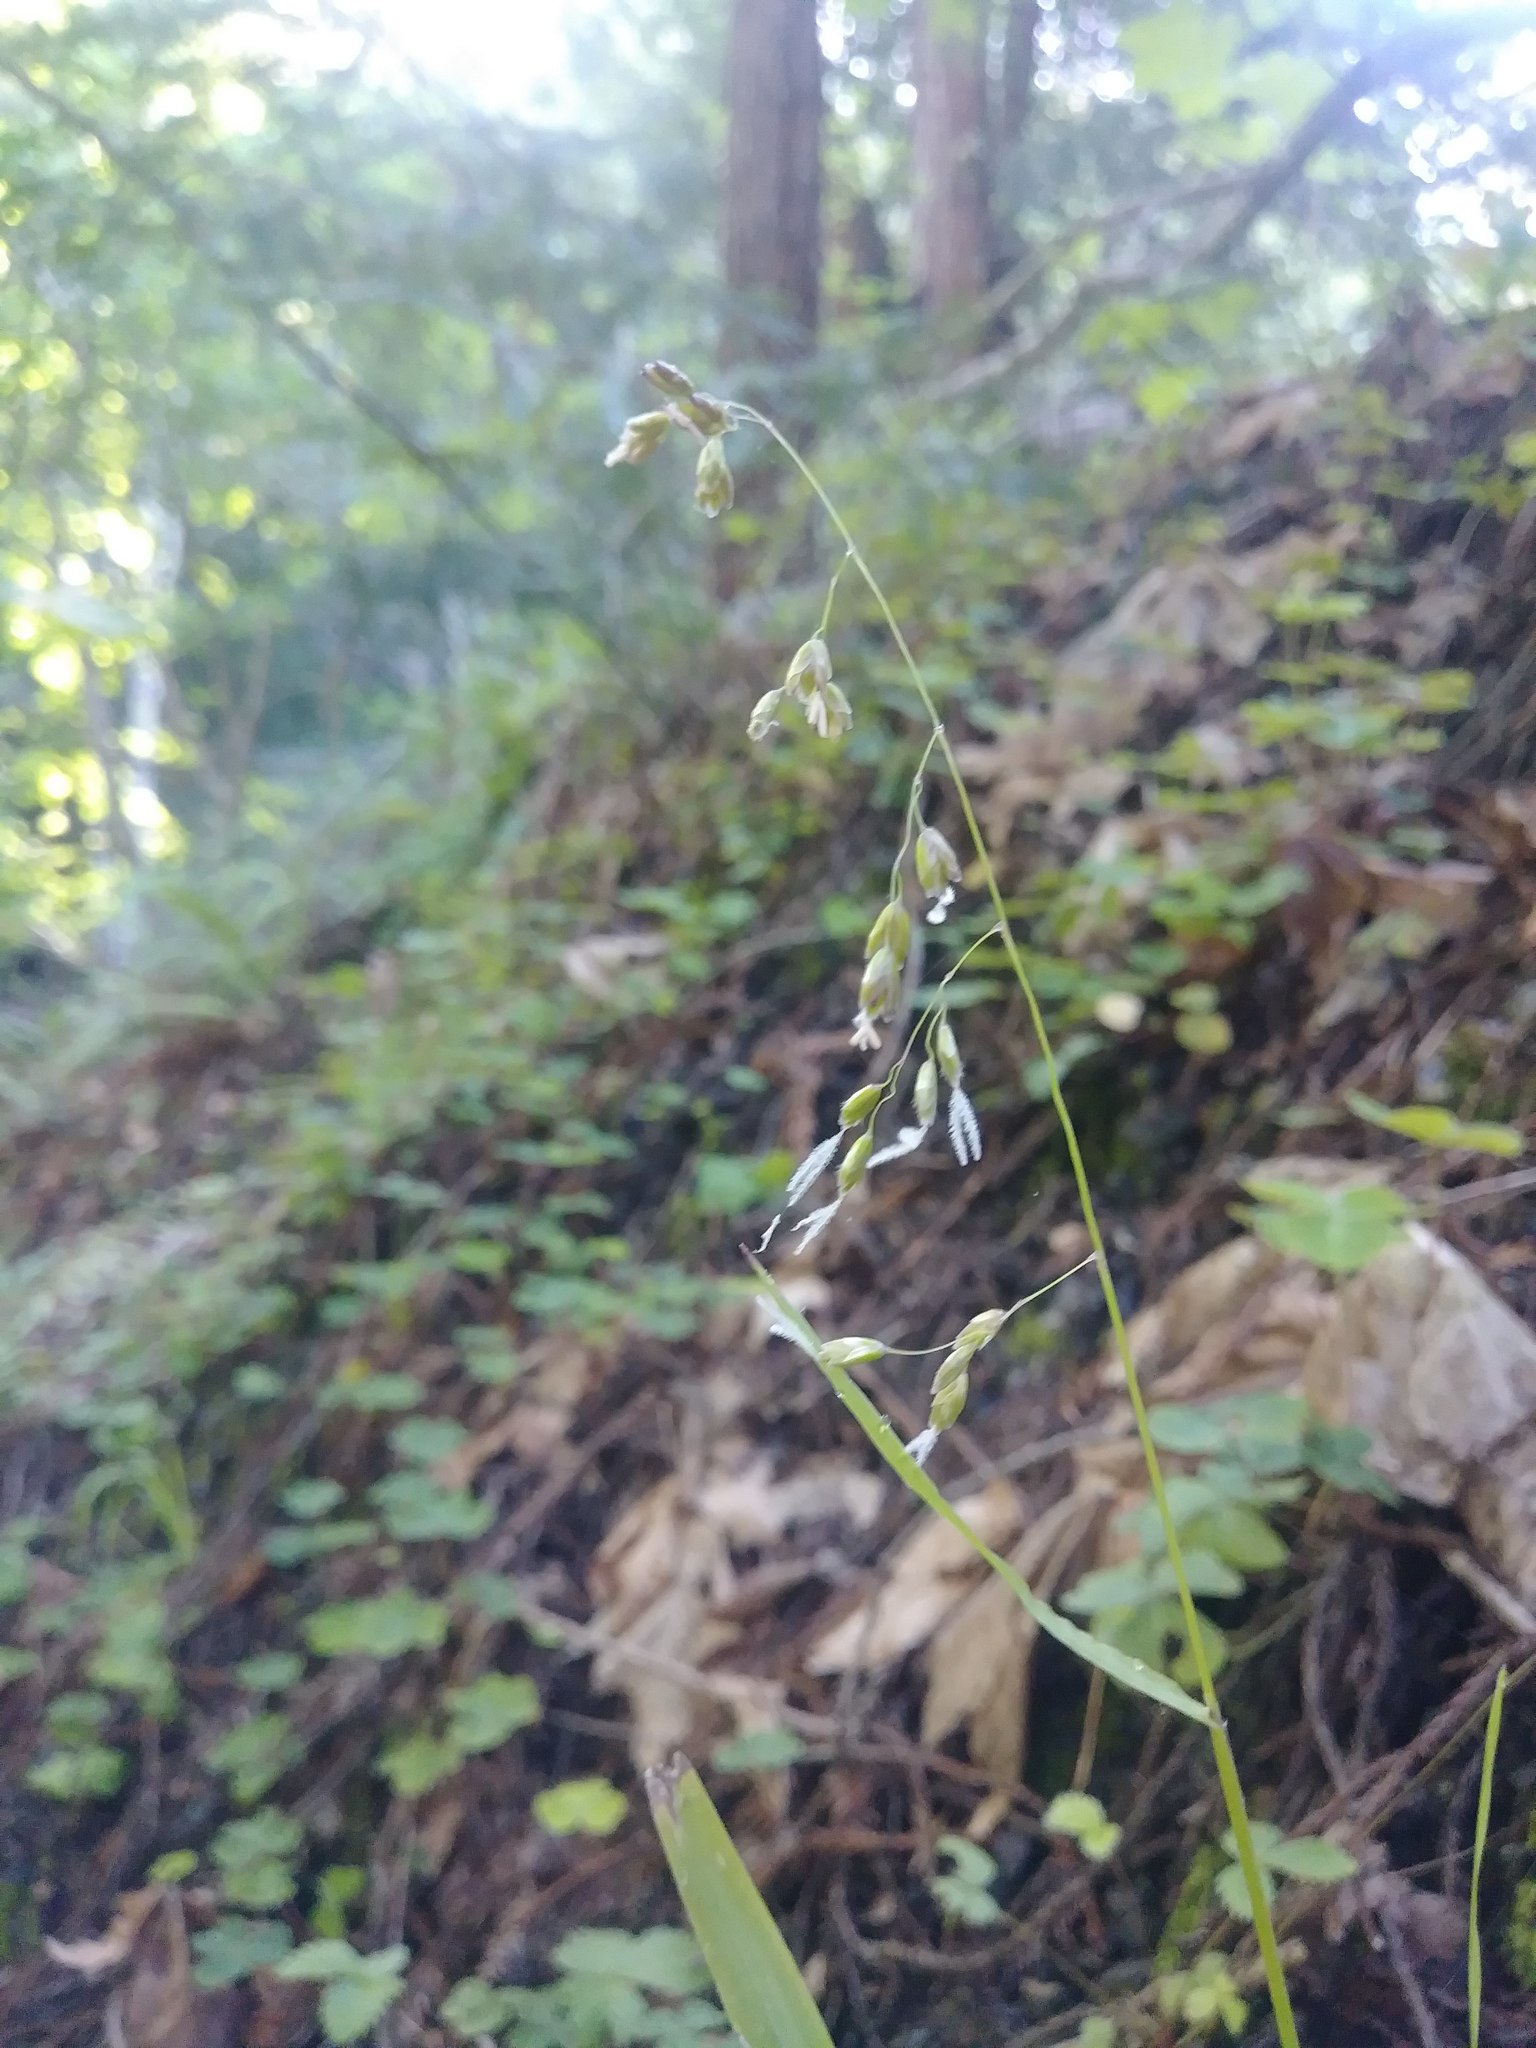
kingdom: Plantae
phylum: Tracheophyta
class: Liliopsida
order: Poales
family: Poaceae
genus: Anthoxanthum
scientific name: Anthoxanthum occidentale
